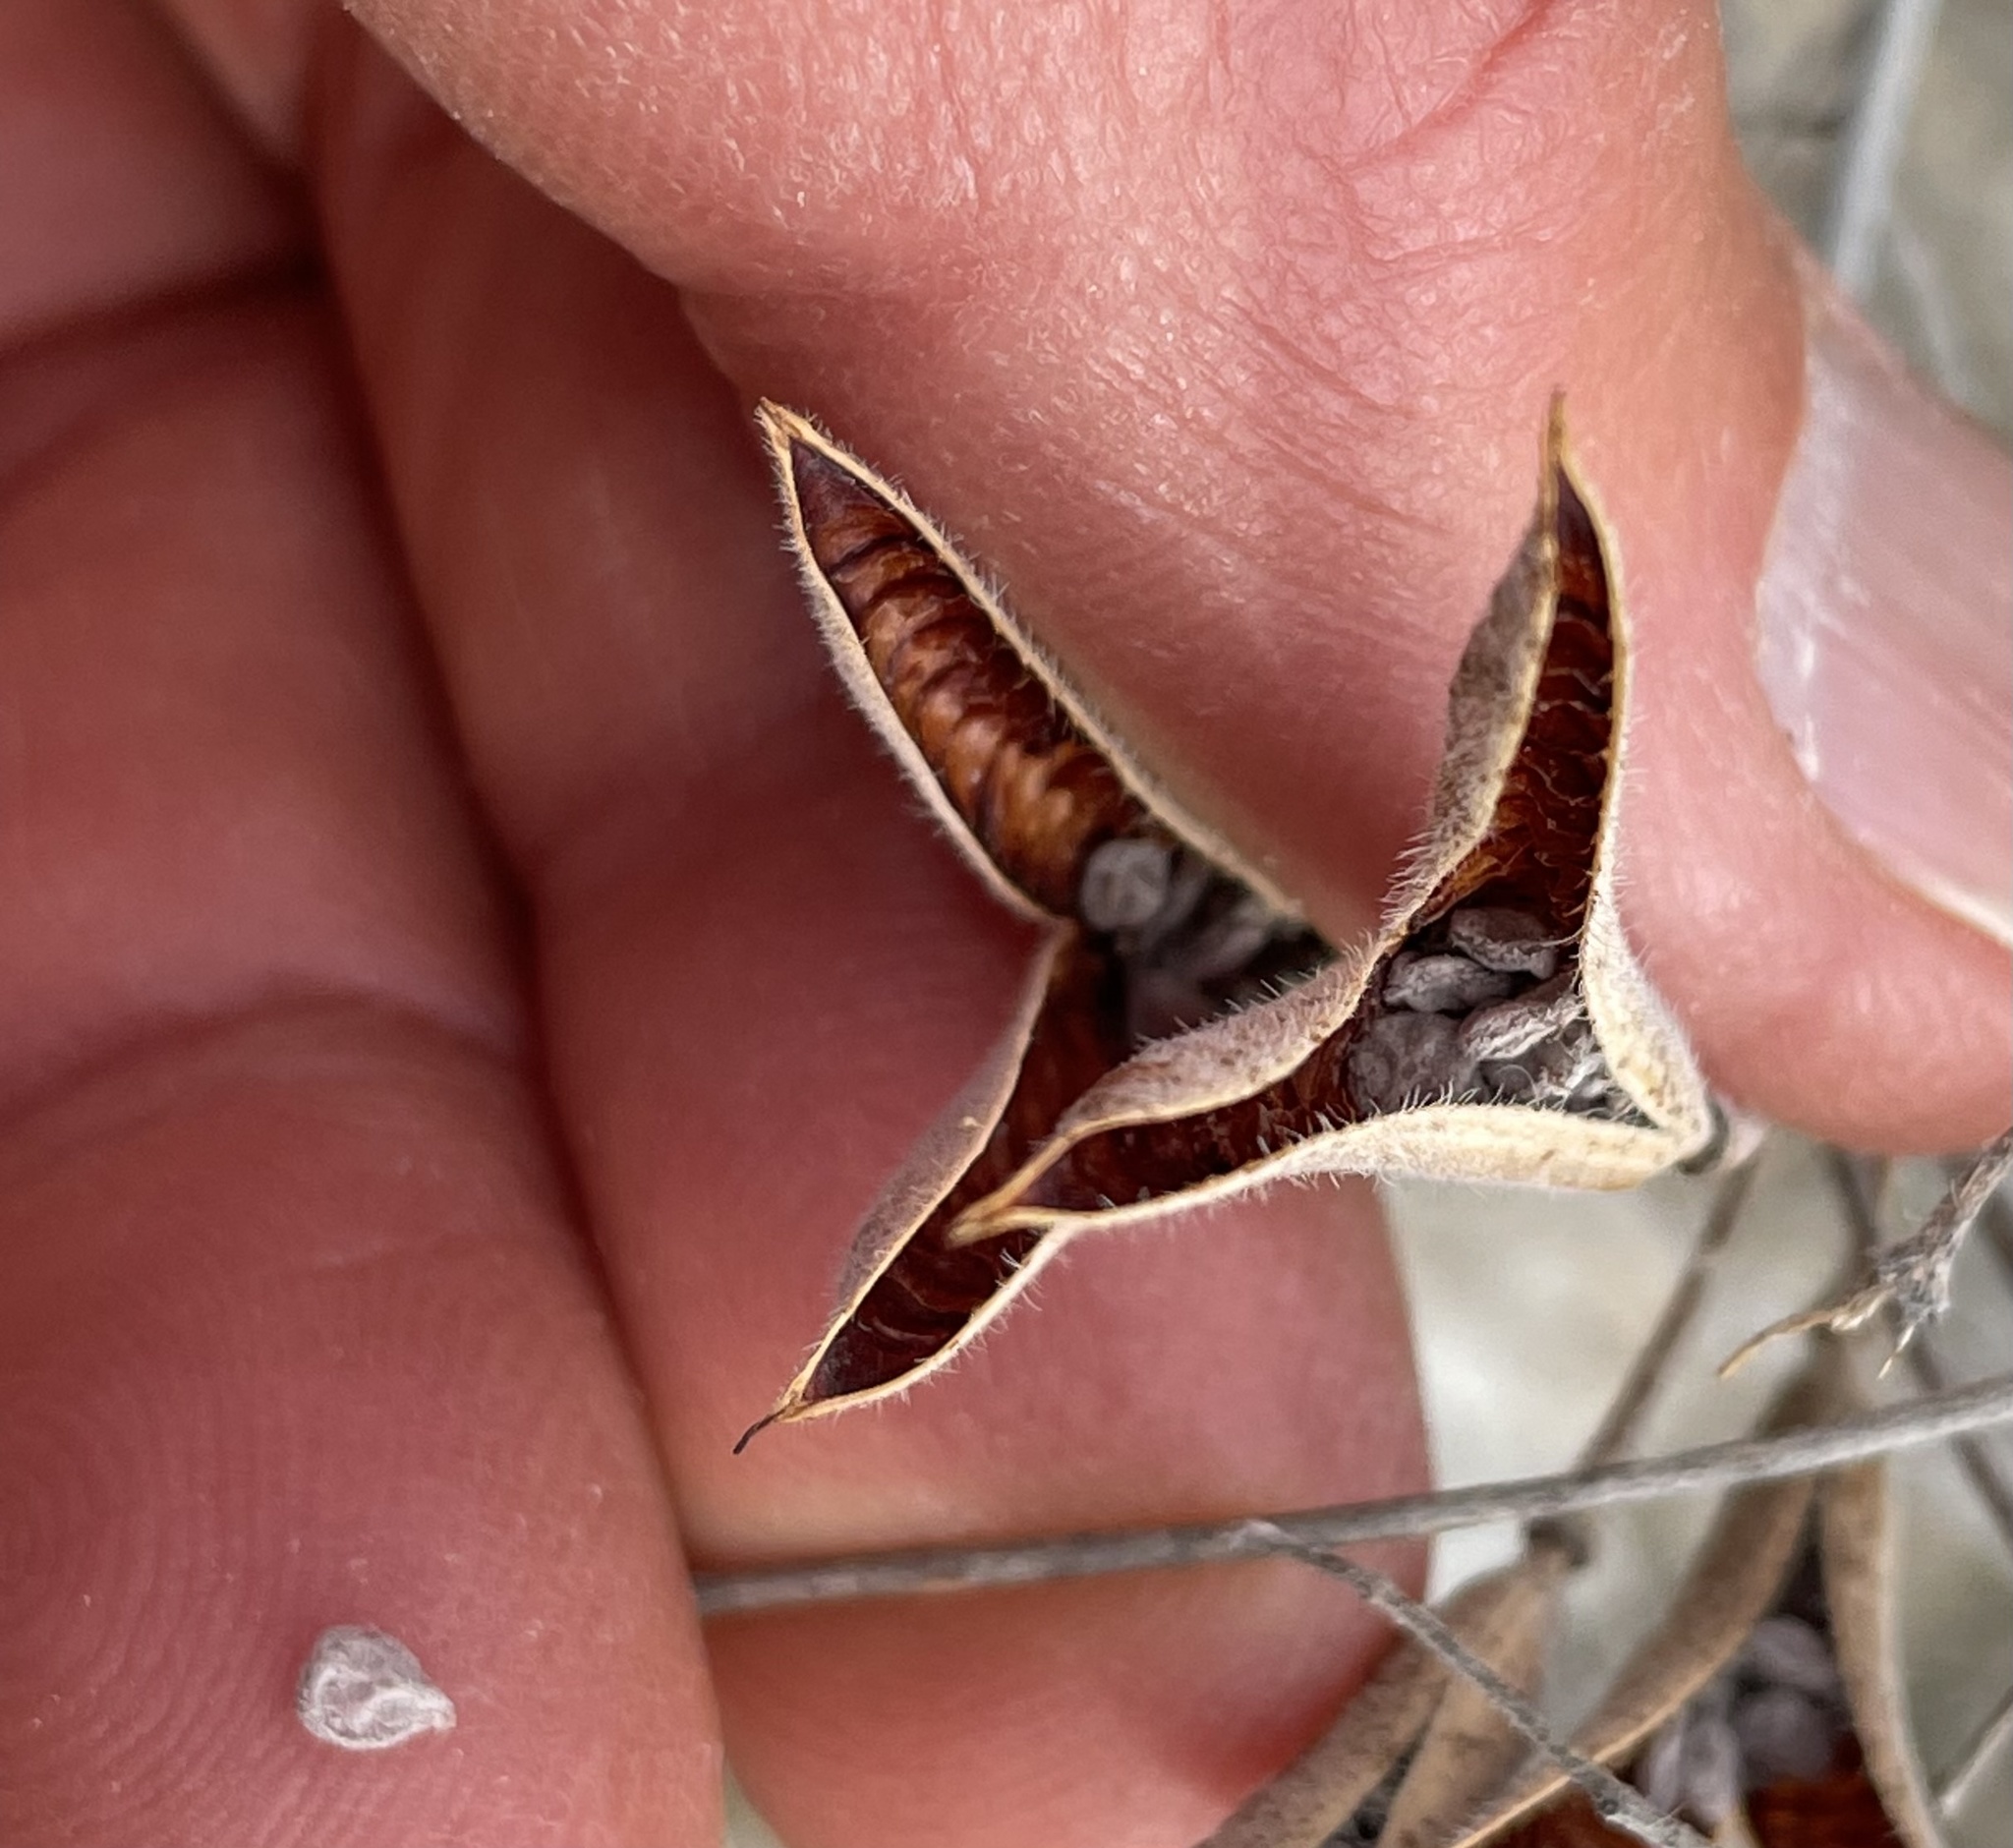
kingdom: Plantae
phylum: Tracheophyta
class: Magnoliopsida
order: Fabales
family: Fabaceae
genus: Senna
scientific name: Senna covesii
